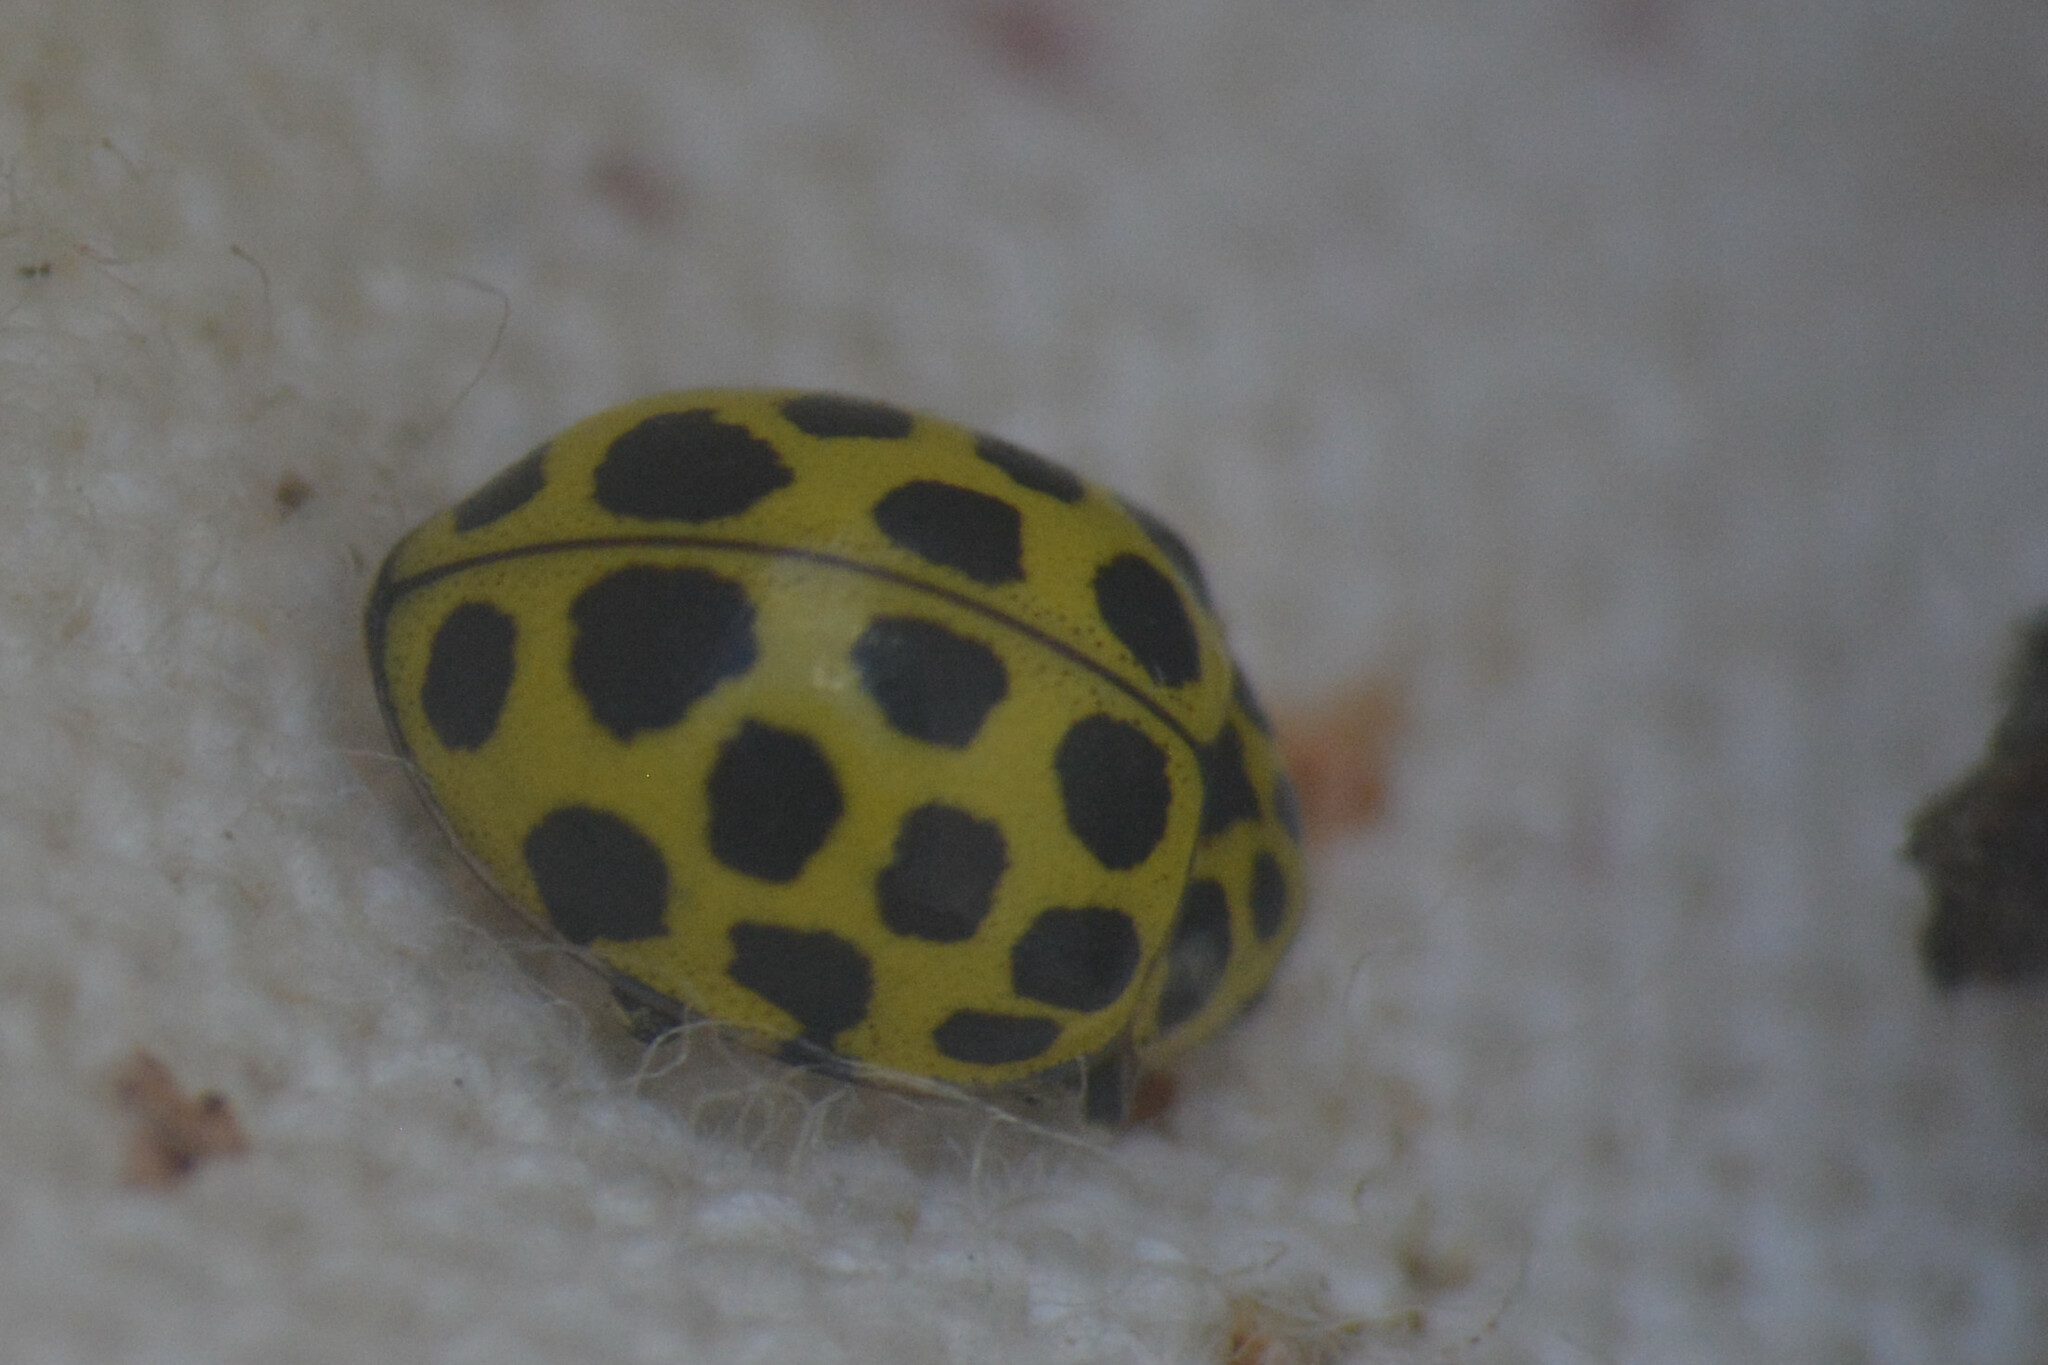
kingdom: Animalia
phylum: Arthropoda
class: Insecta
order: Coleoptera
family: Coccinellidae
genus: Psyllobora
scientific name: Psyllobora vigintiduopunctata
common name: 22-spot ladybird
